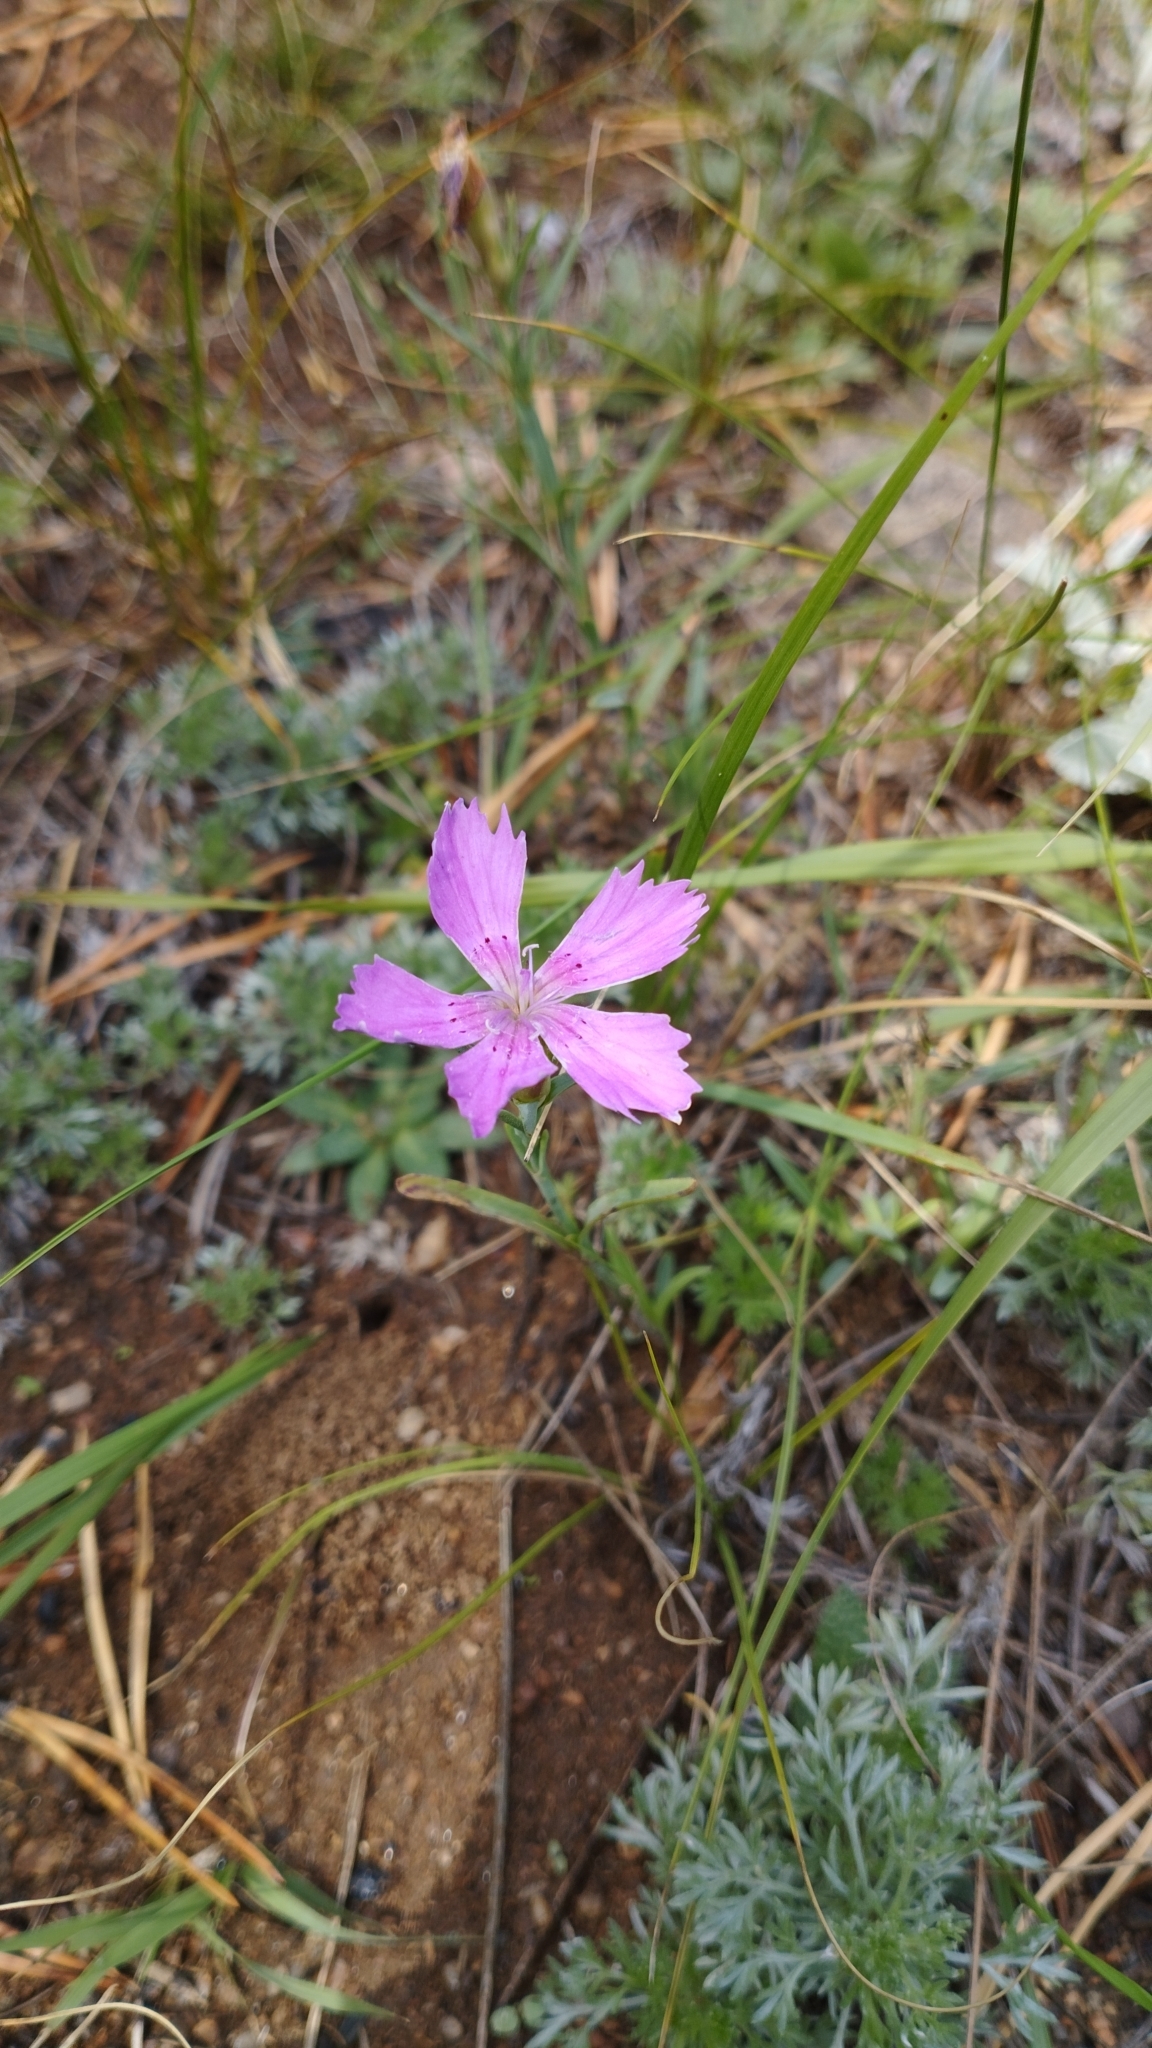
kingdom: Plantae
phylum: Tracheophyta
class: Magnoliopsida
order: Caryophyllales
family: Caryophyllaceae
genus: Dianthus
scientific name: Dianthus chinensis
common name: Rainbow pink
